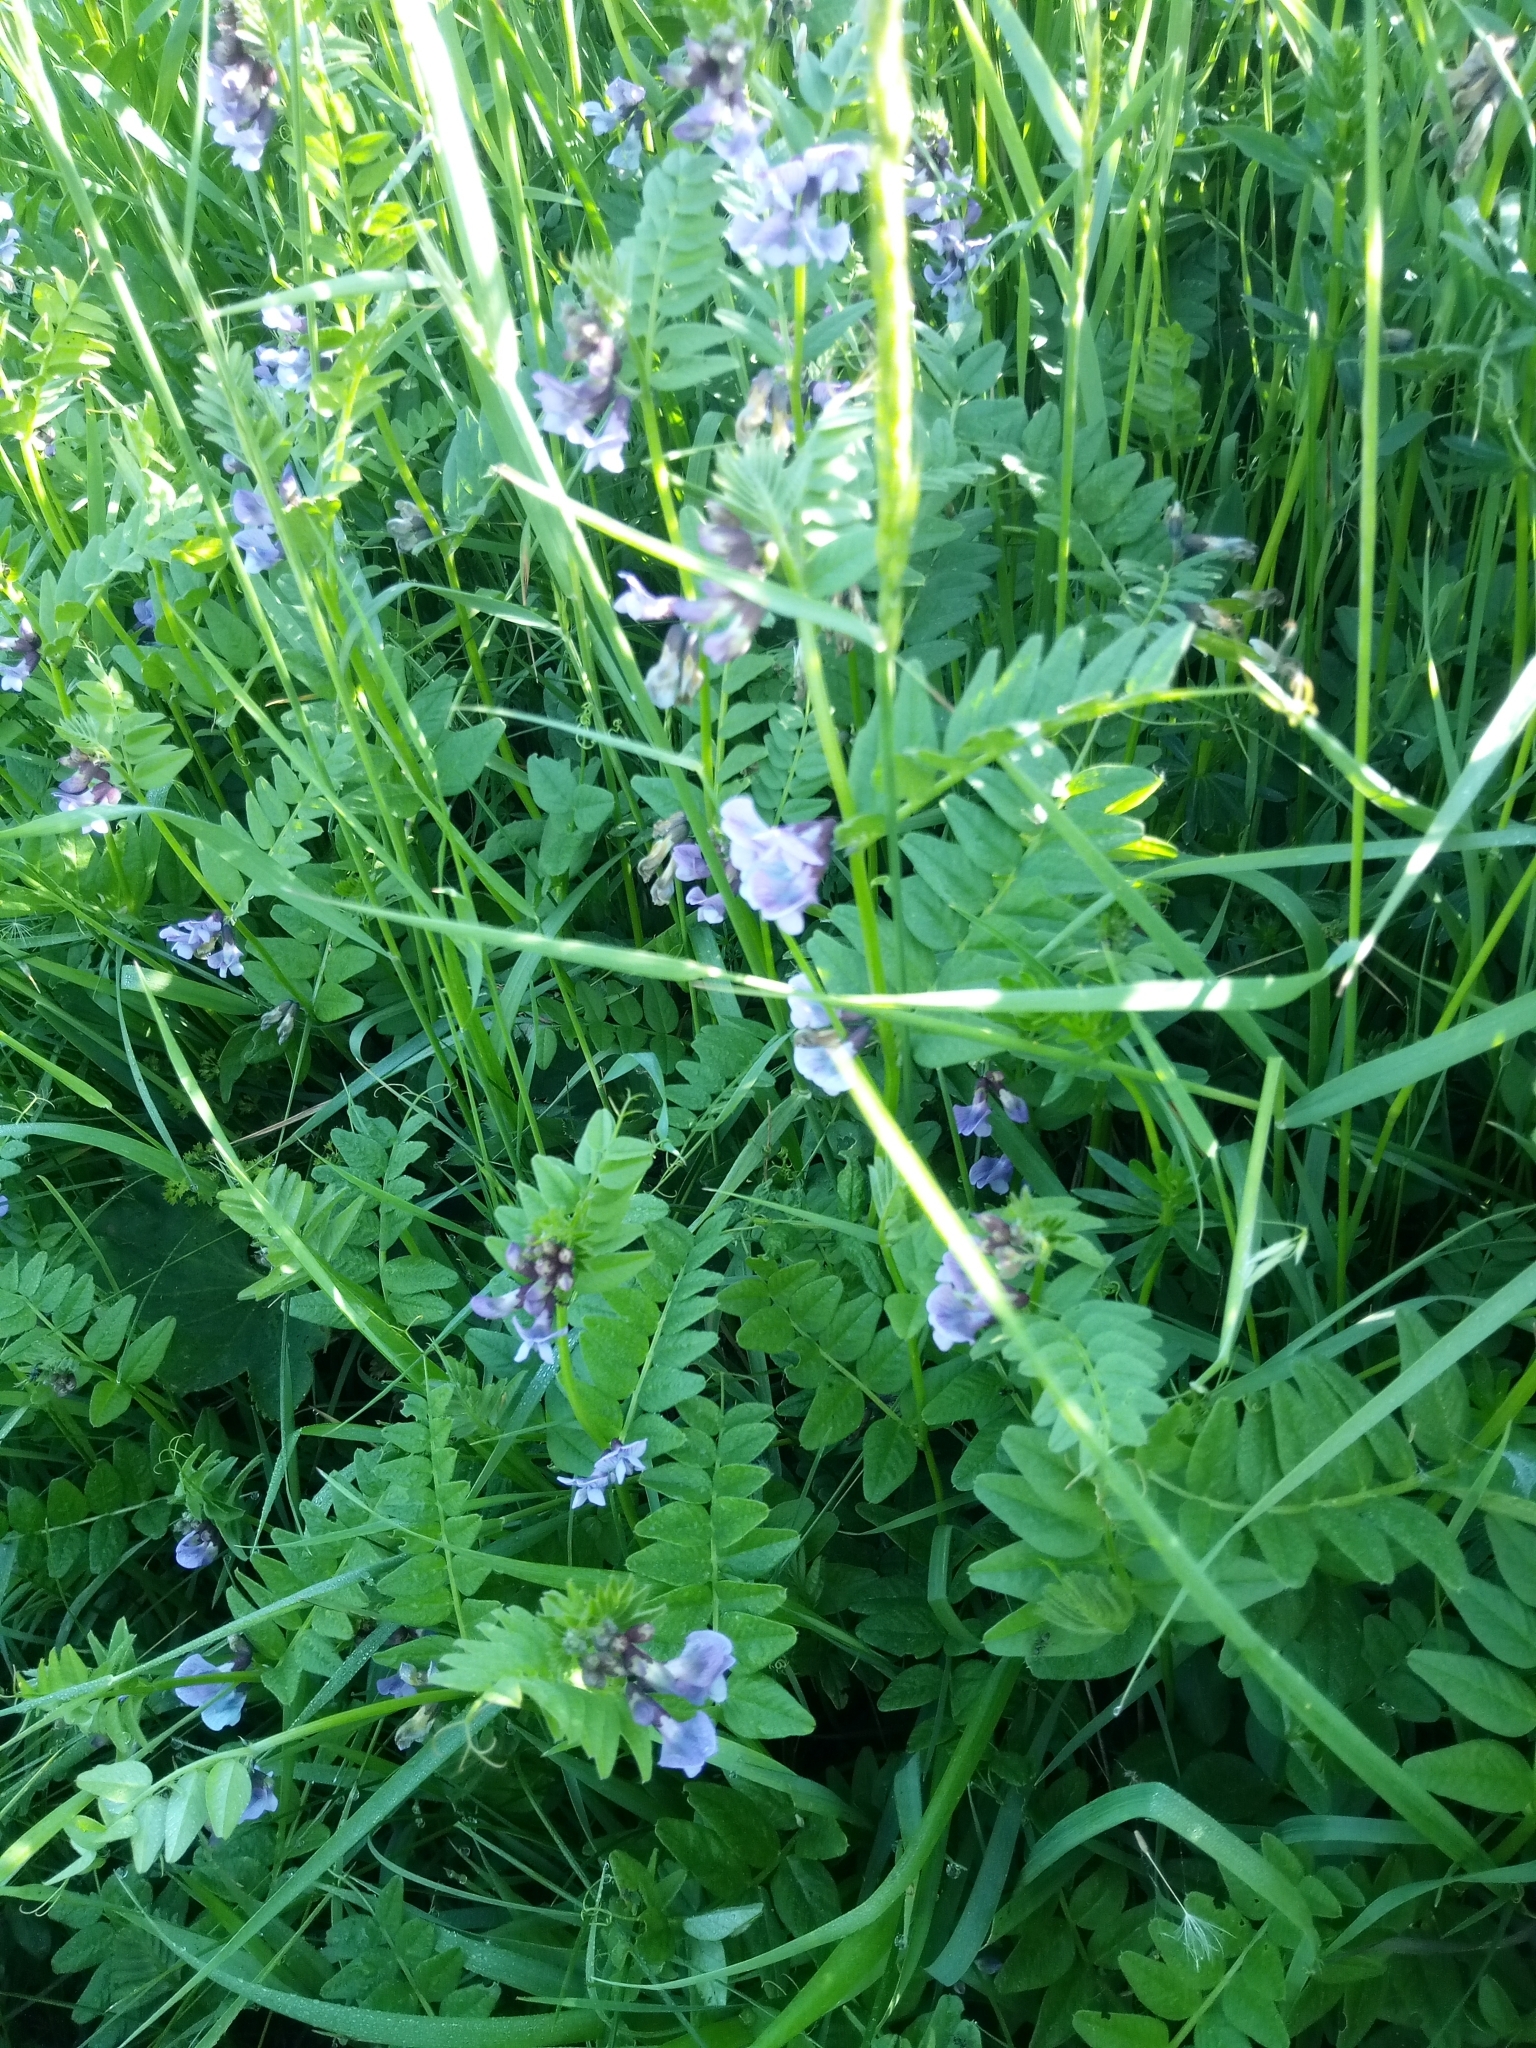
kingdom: Plantae
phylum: Tracheophyta
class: Magnoliopsida
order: Fabales
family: Fabaceae
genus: Vicia
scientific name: Vicia sepium
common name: Bush vetch
